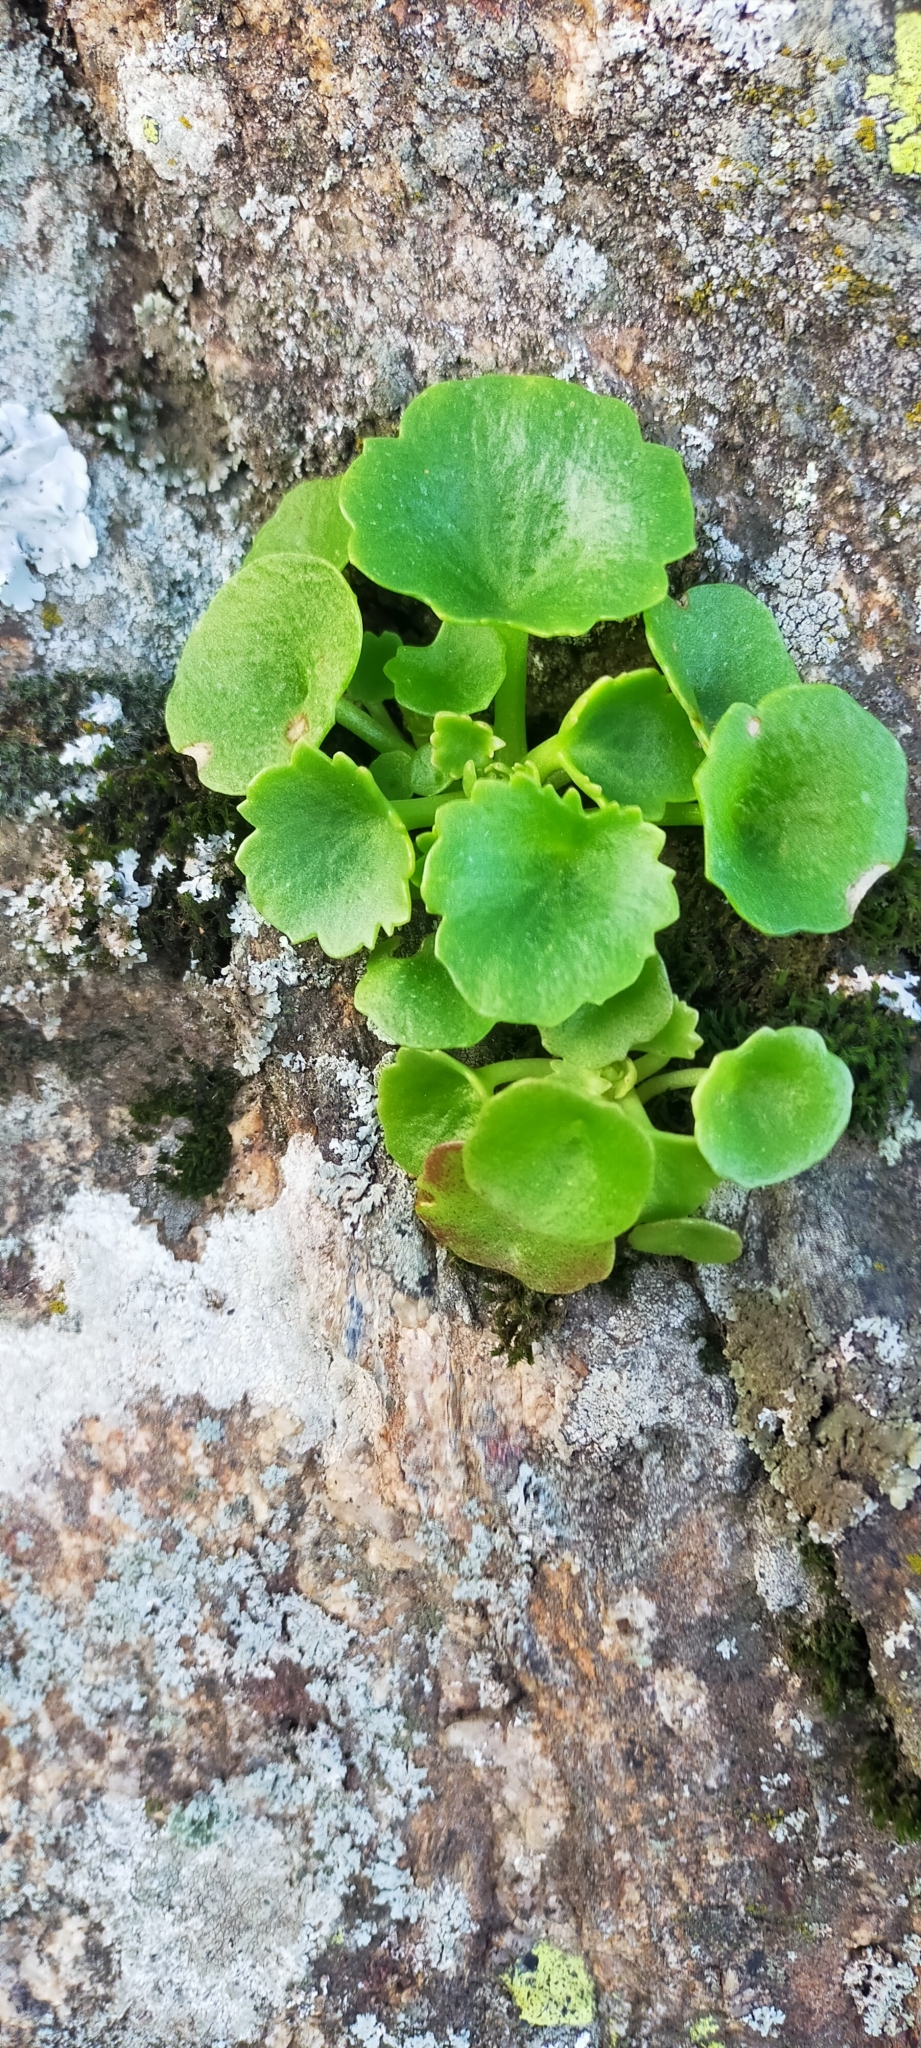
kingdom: Plantae
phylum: Tracheophyta
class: Magnoliopsida
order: Saxifragales
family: Crassulaceae
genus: Umbilicus
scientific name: Umbilicus rupestris
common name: Navelwort
